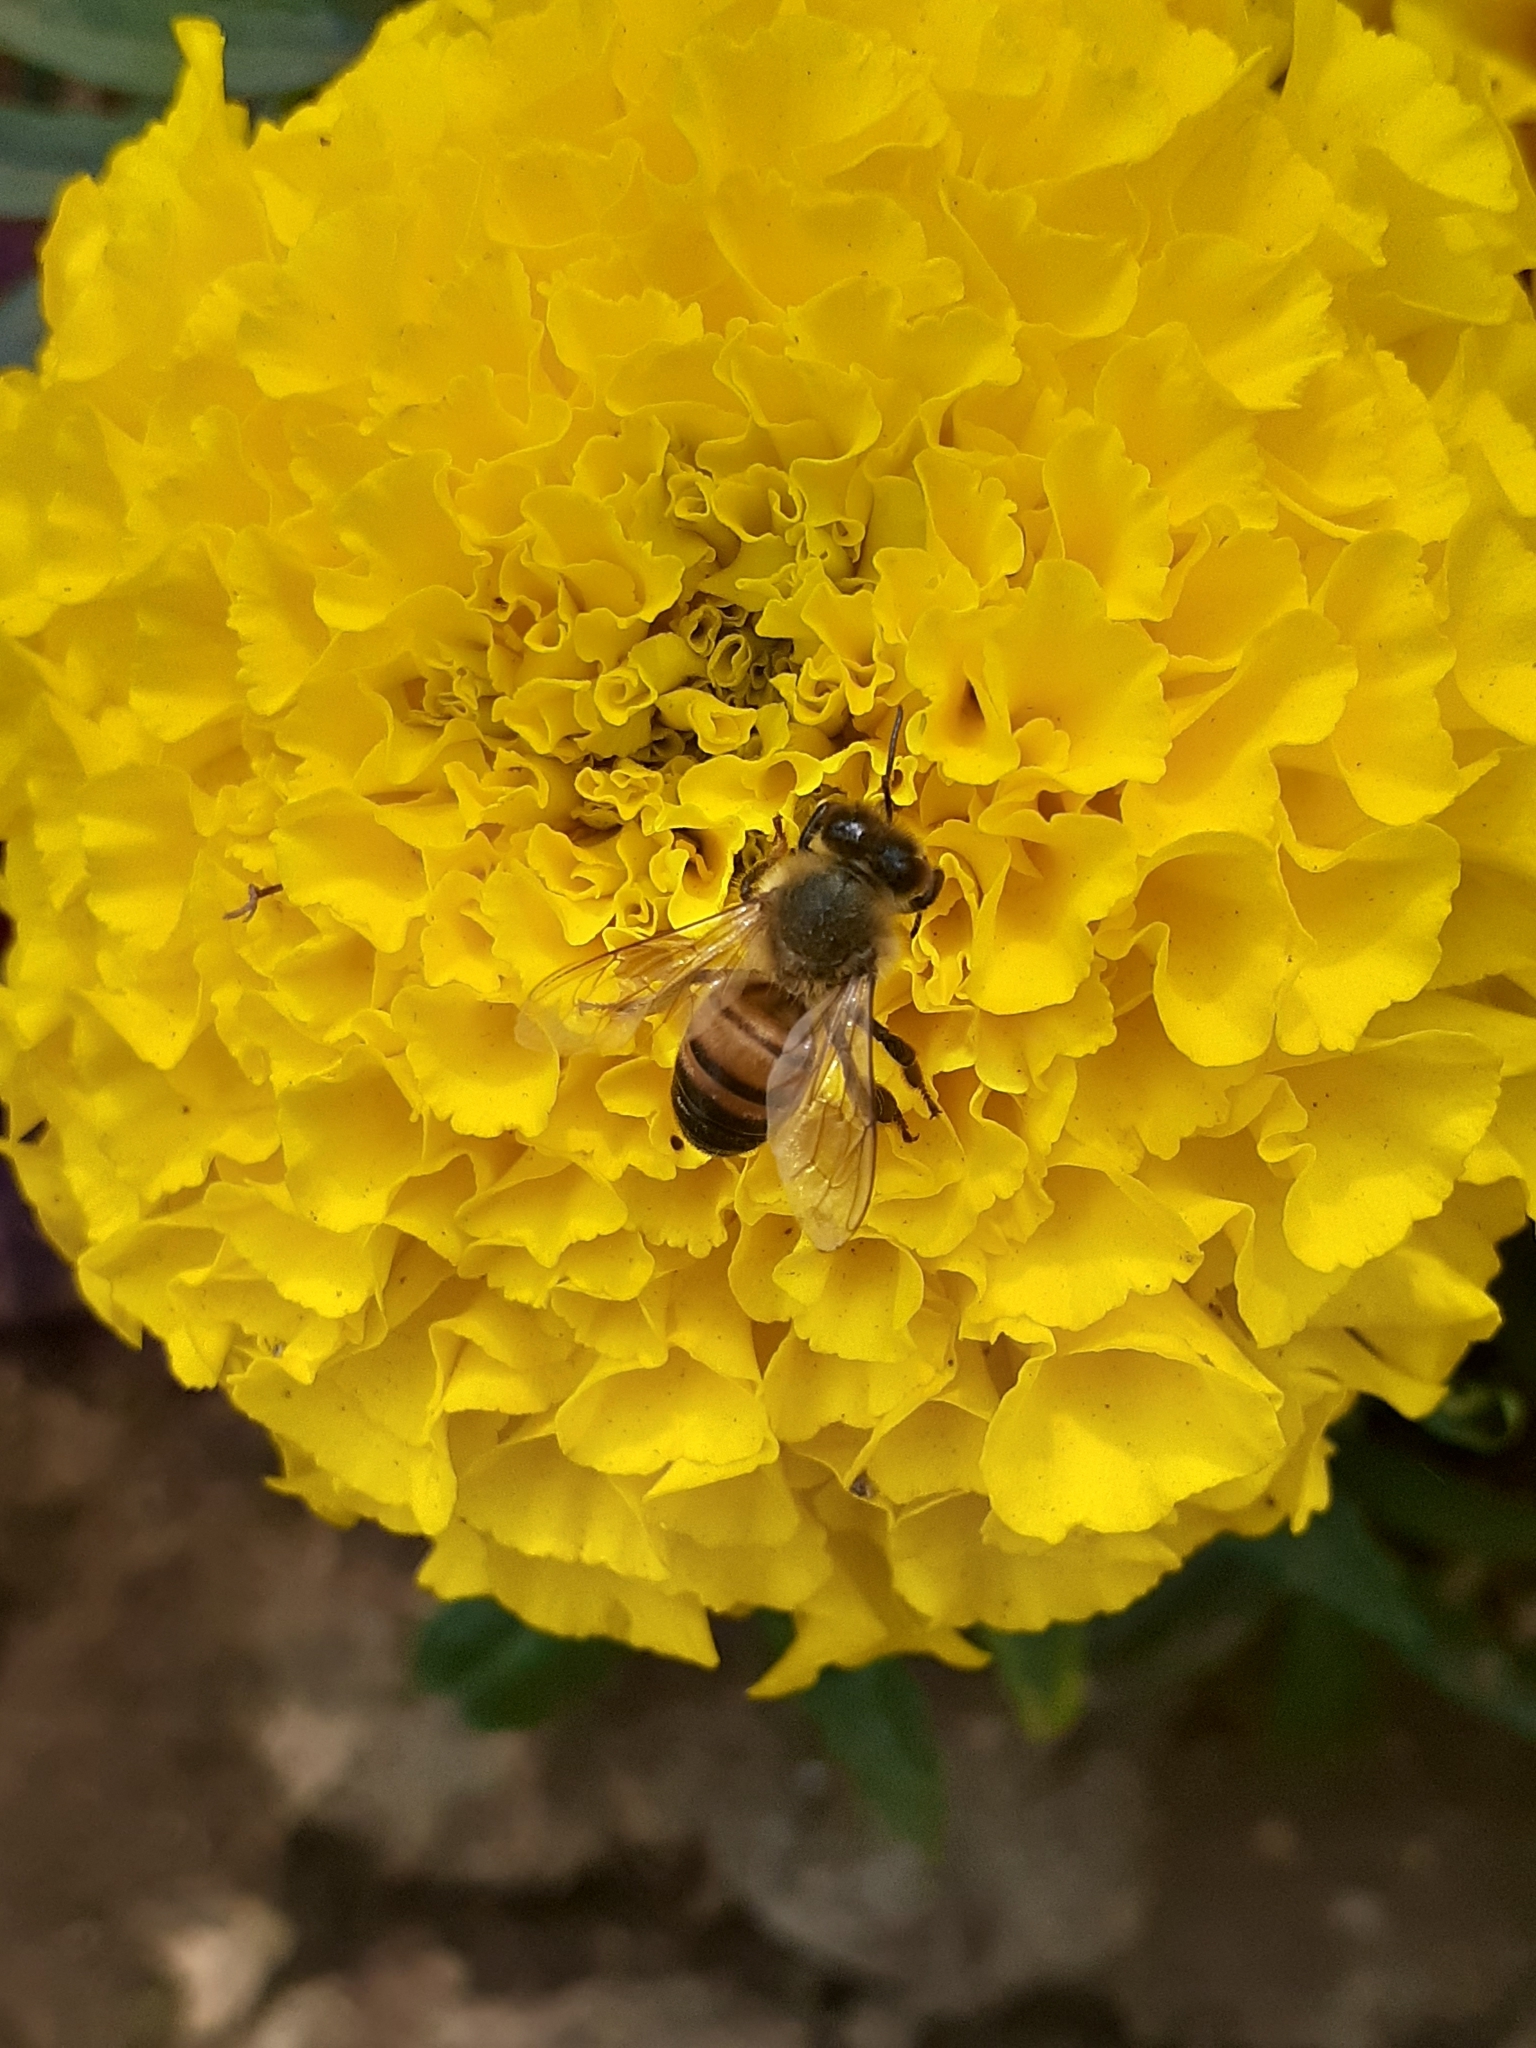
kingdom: Animalia
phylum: Arthropoda
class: Insecta
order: Hymenoptera
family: Apidae
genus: Apis
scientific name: Apis mellifera
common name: Honey bee
